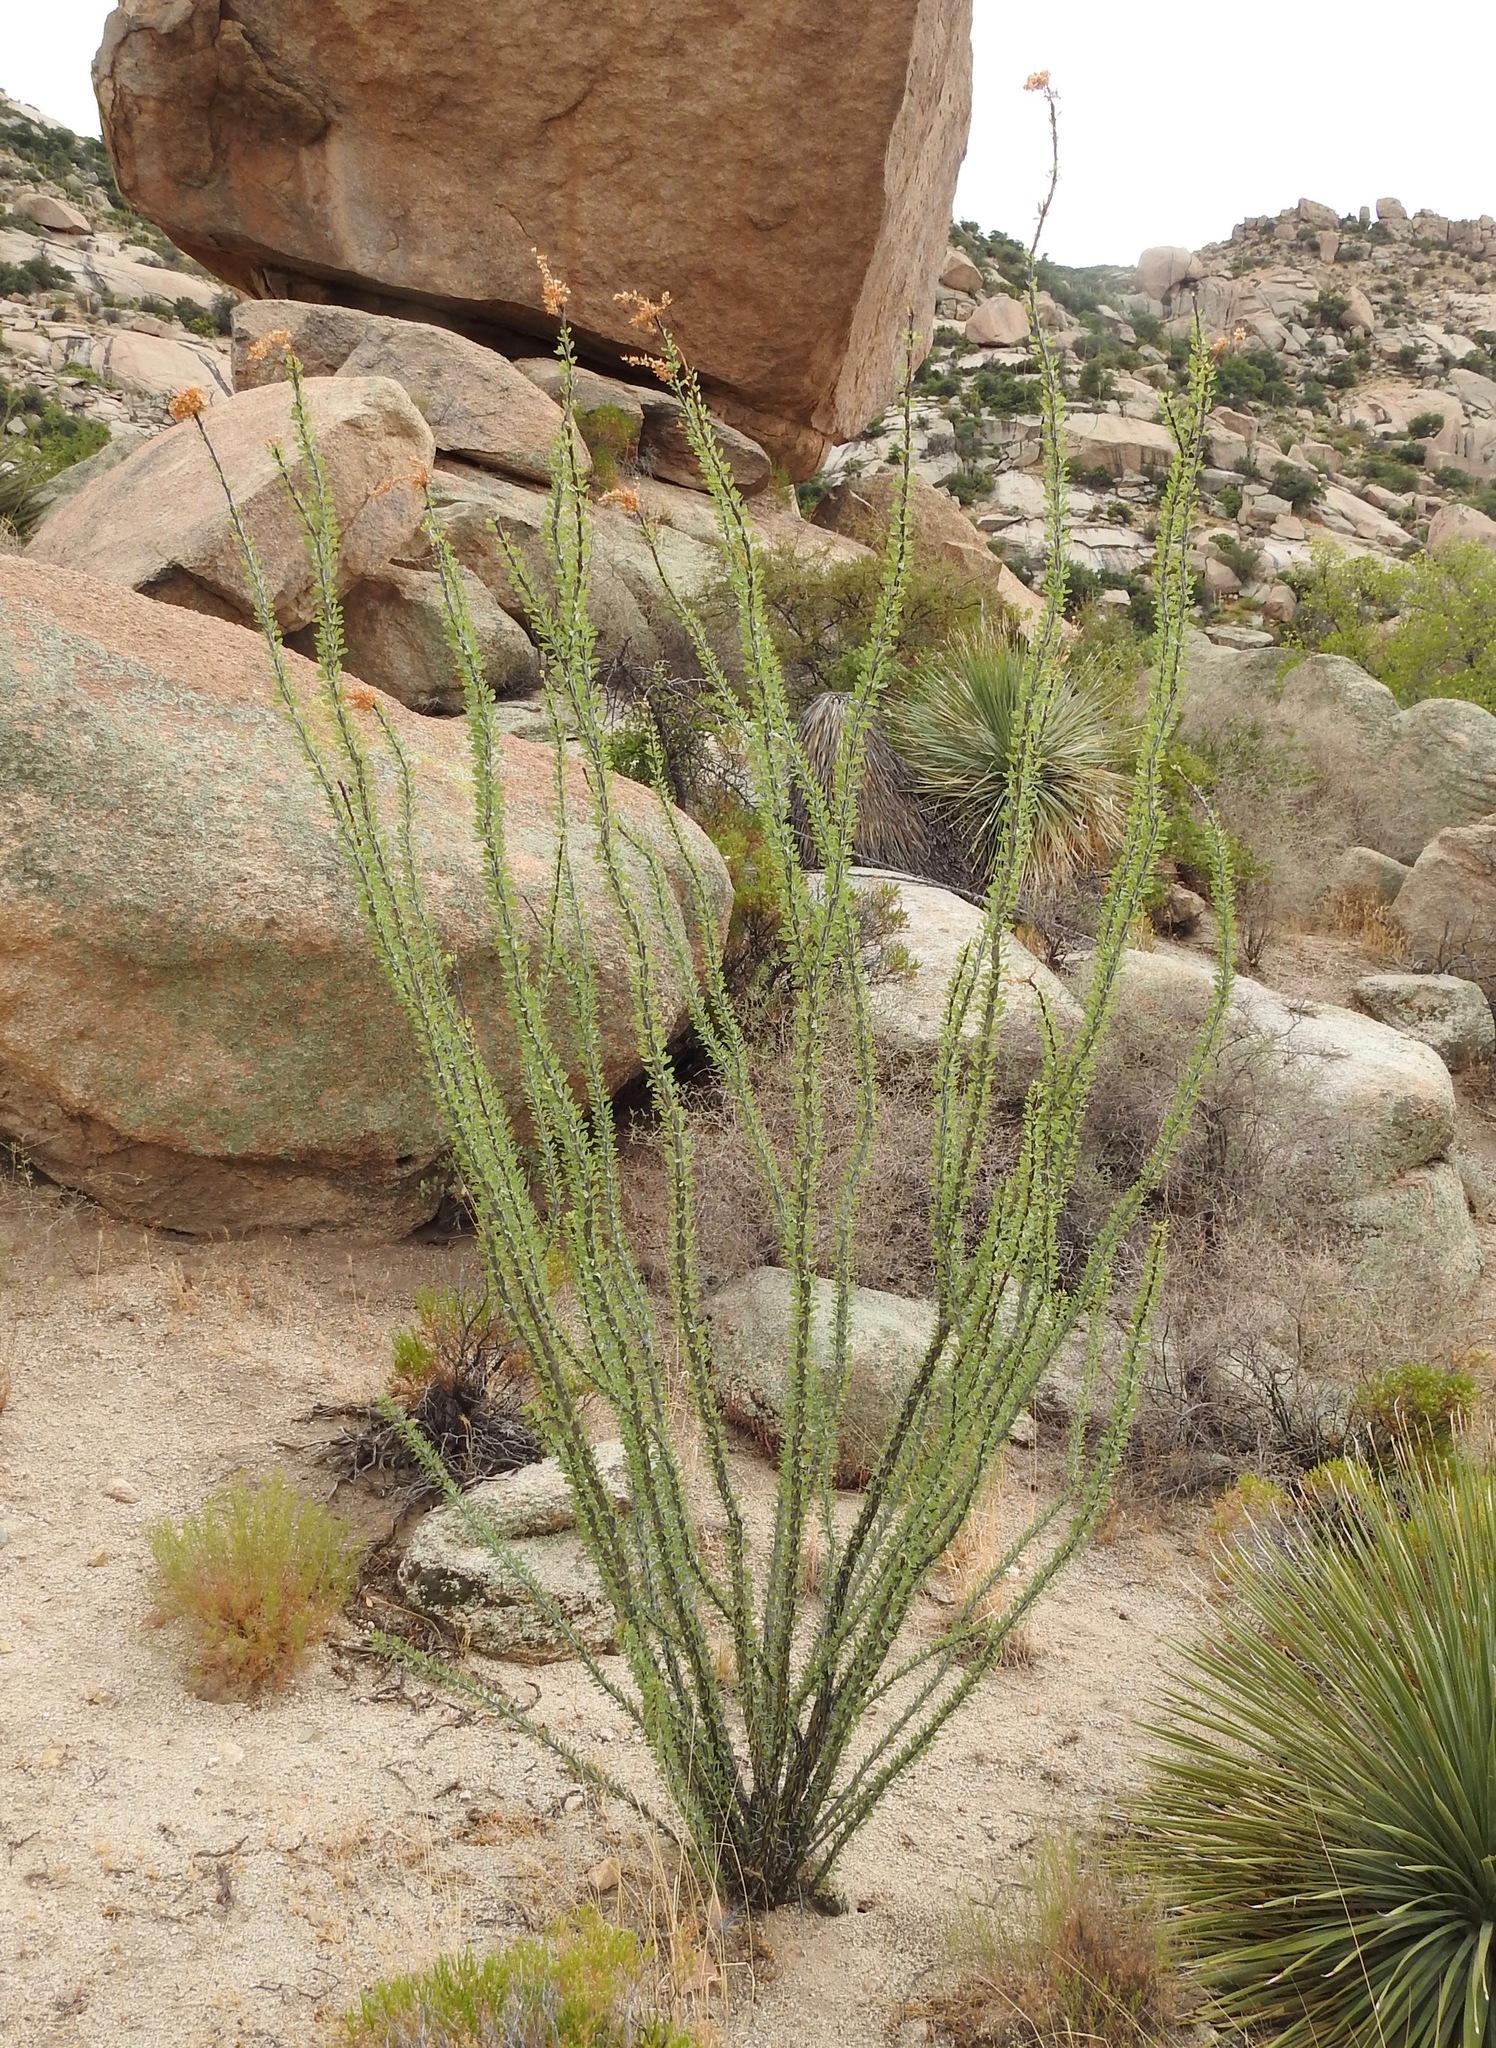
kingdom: Plantae
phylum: Tracheophyta
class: Magnoliopsida
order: Ericales
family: Fouquieriaceae
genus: Fouquieria
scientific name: Fouquieria splendens
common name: Vine-cactus
